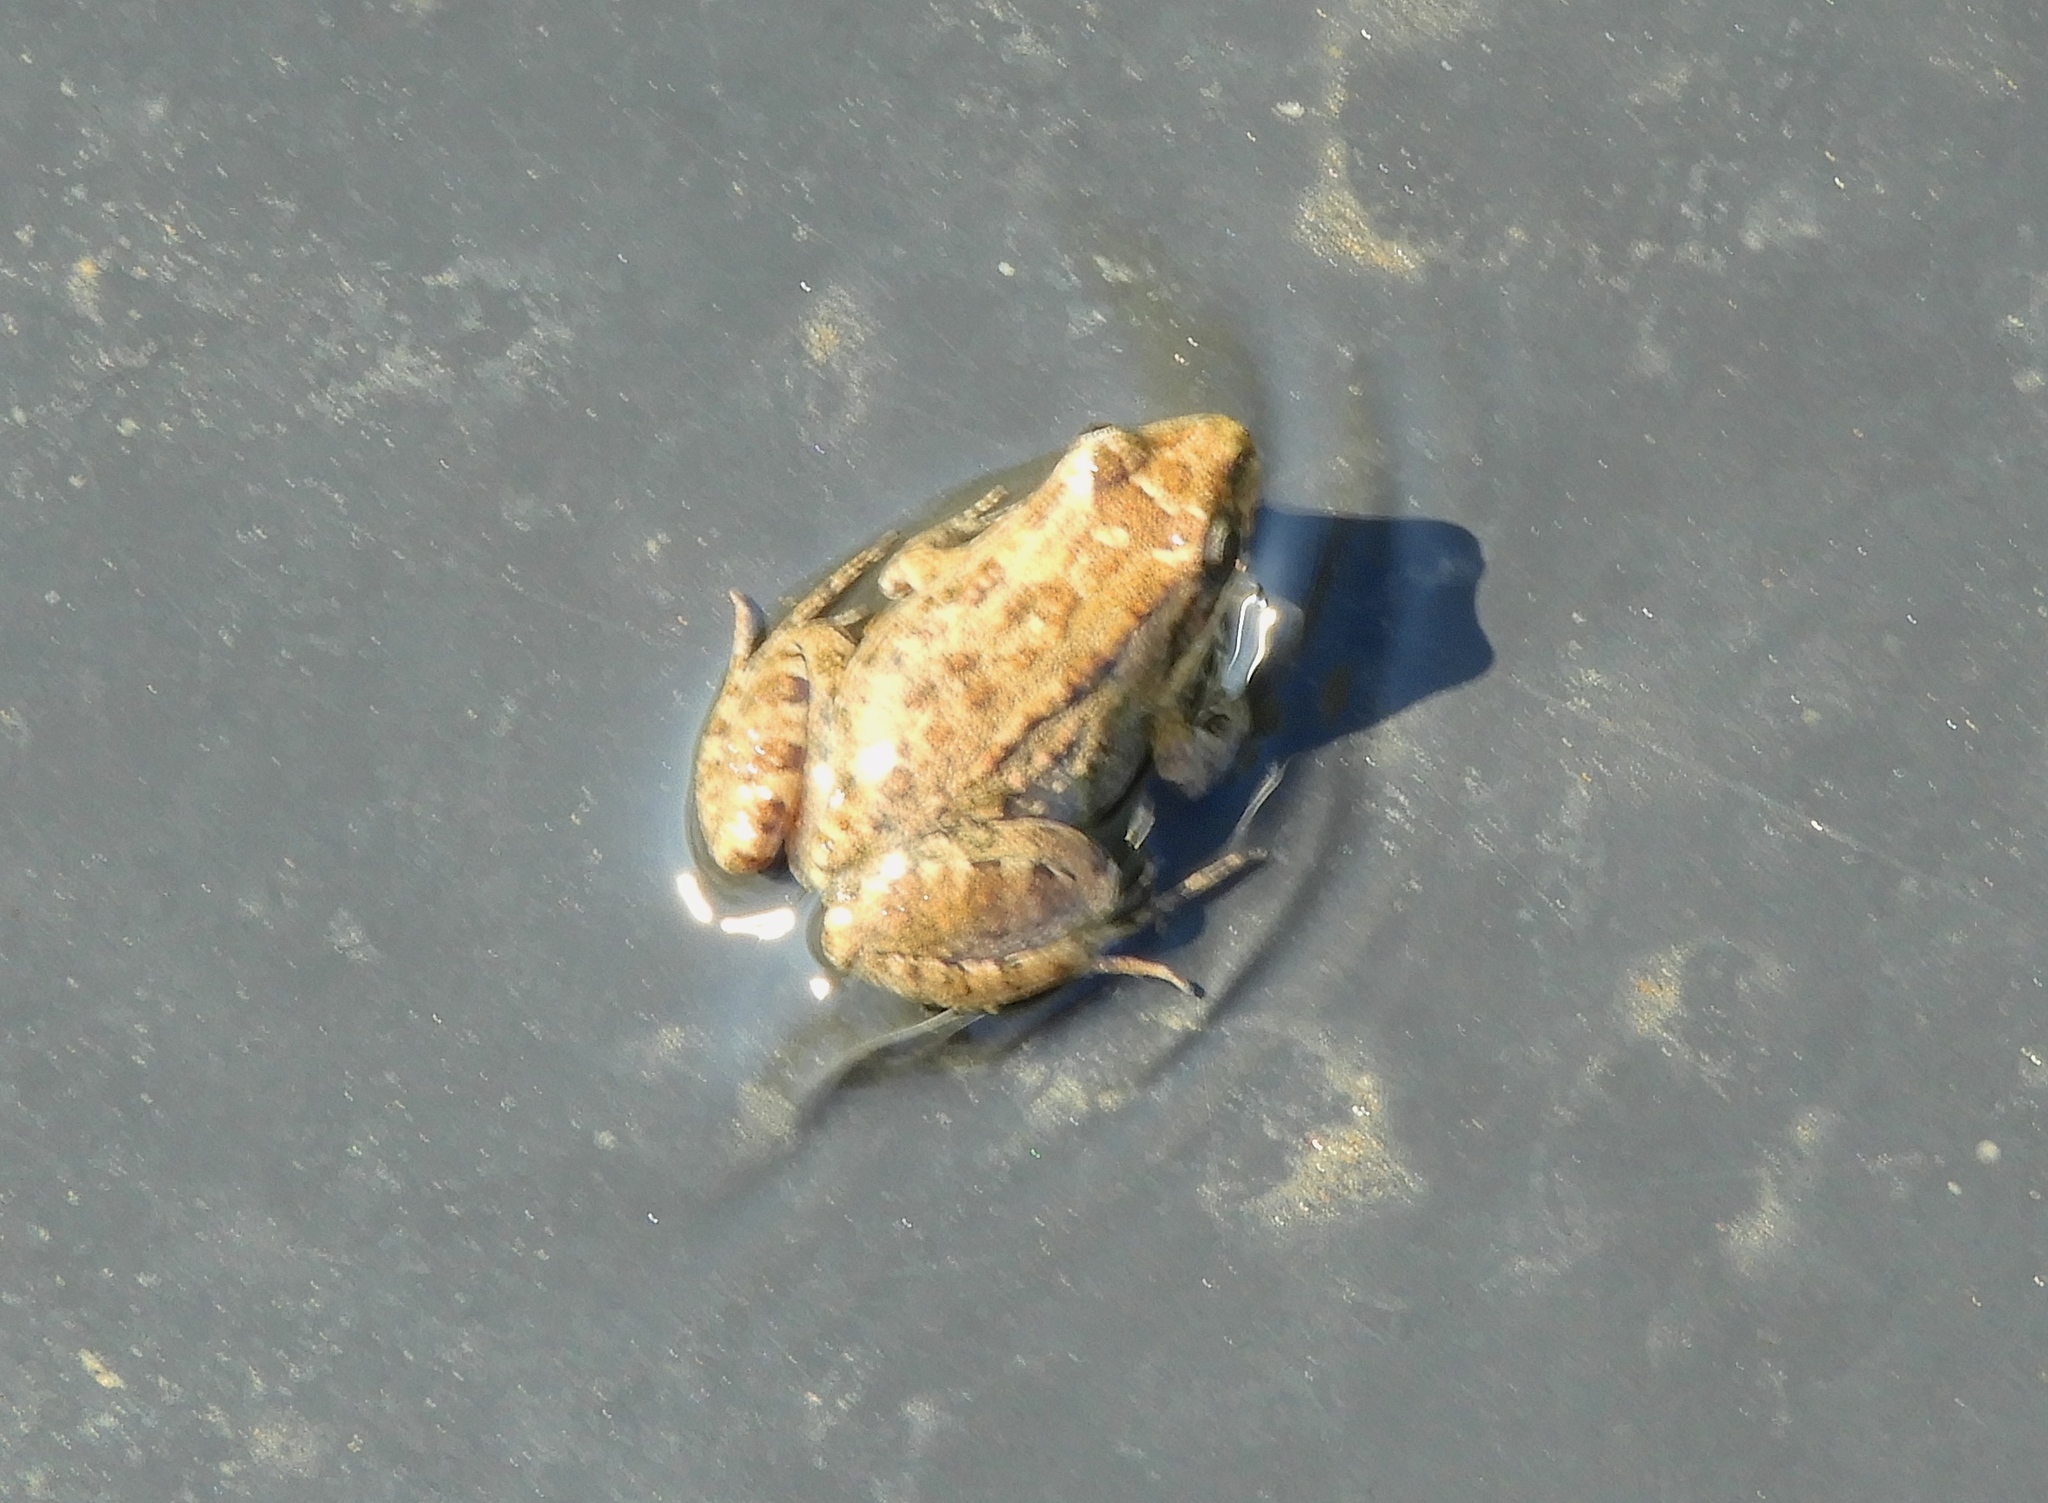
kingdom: Animalia
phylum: Chordata
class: Amphibia
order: Anura
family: Leptodactylidae
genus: Leptodactylus
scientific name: Leptodactylus melanonotus
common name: Fringe-toed foamfrog
